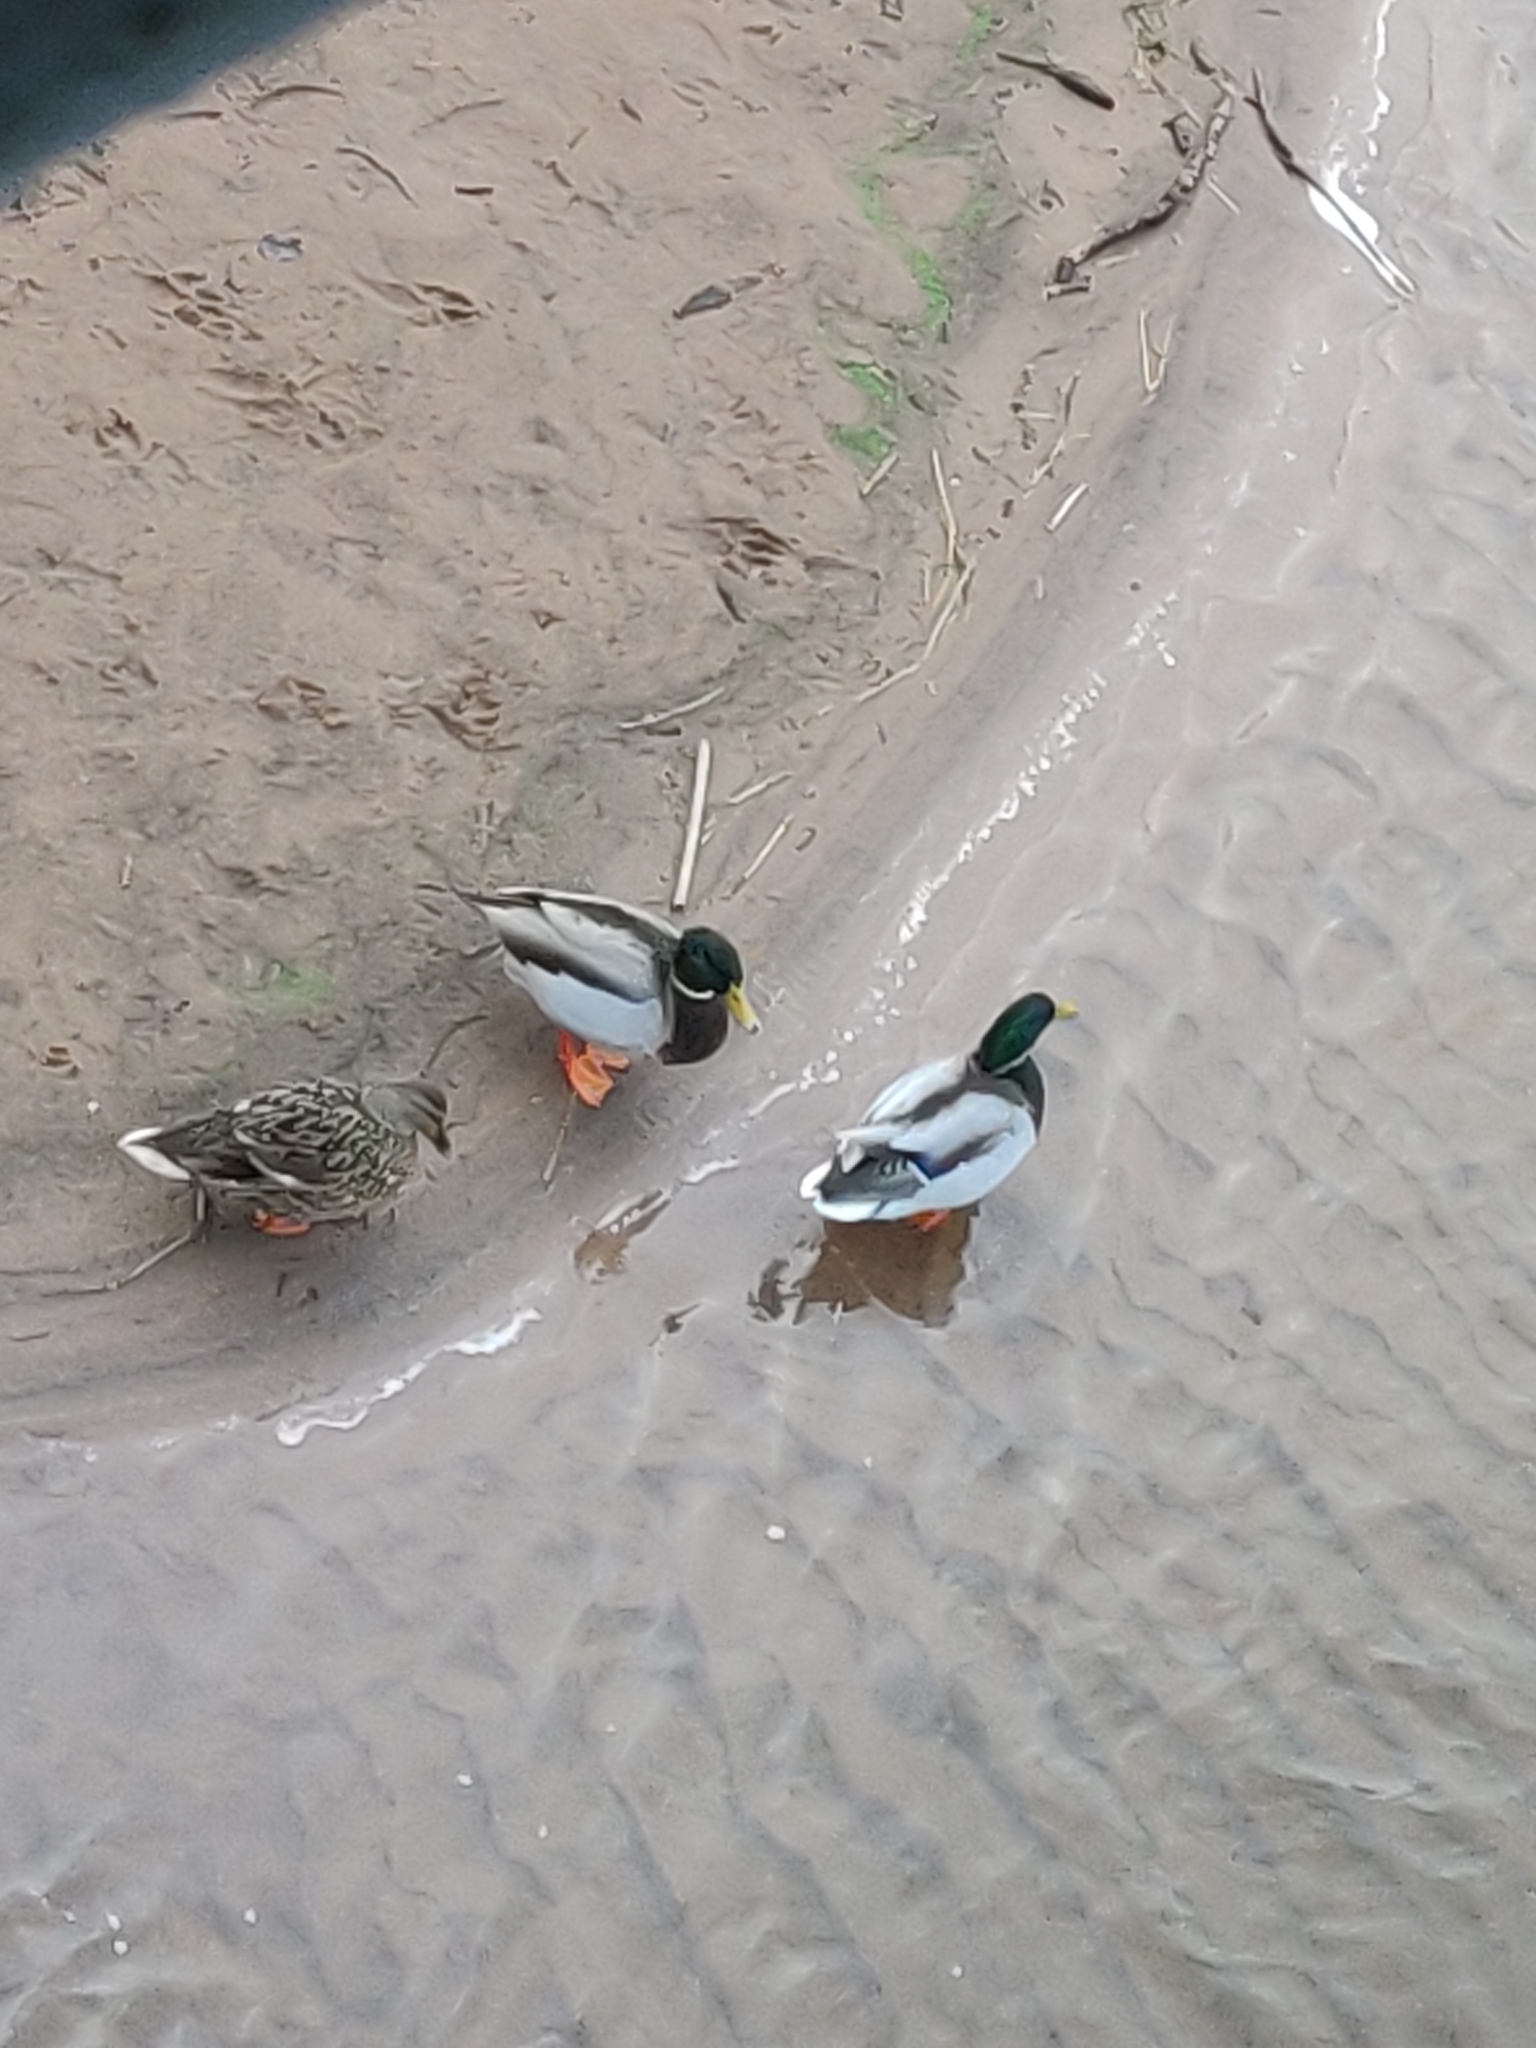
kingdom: Animalia
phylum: Chordata
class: Aves
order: Anseriformes
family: Anatidae
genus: Anas
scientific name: Anas platyrhynchos
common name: Mallard
